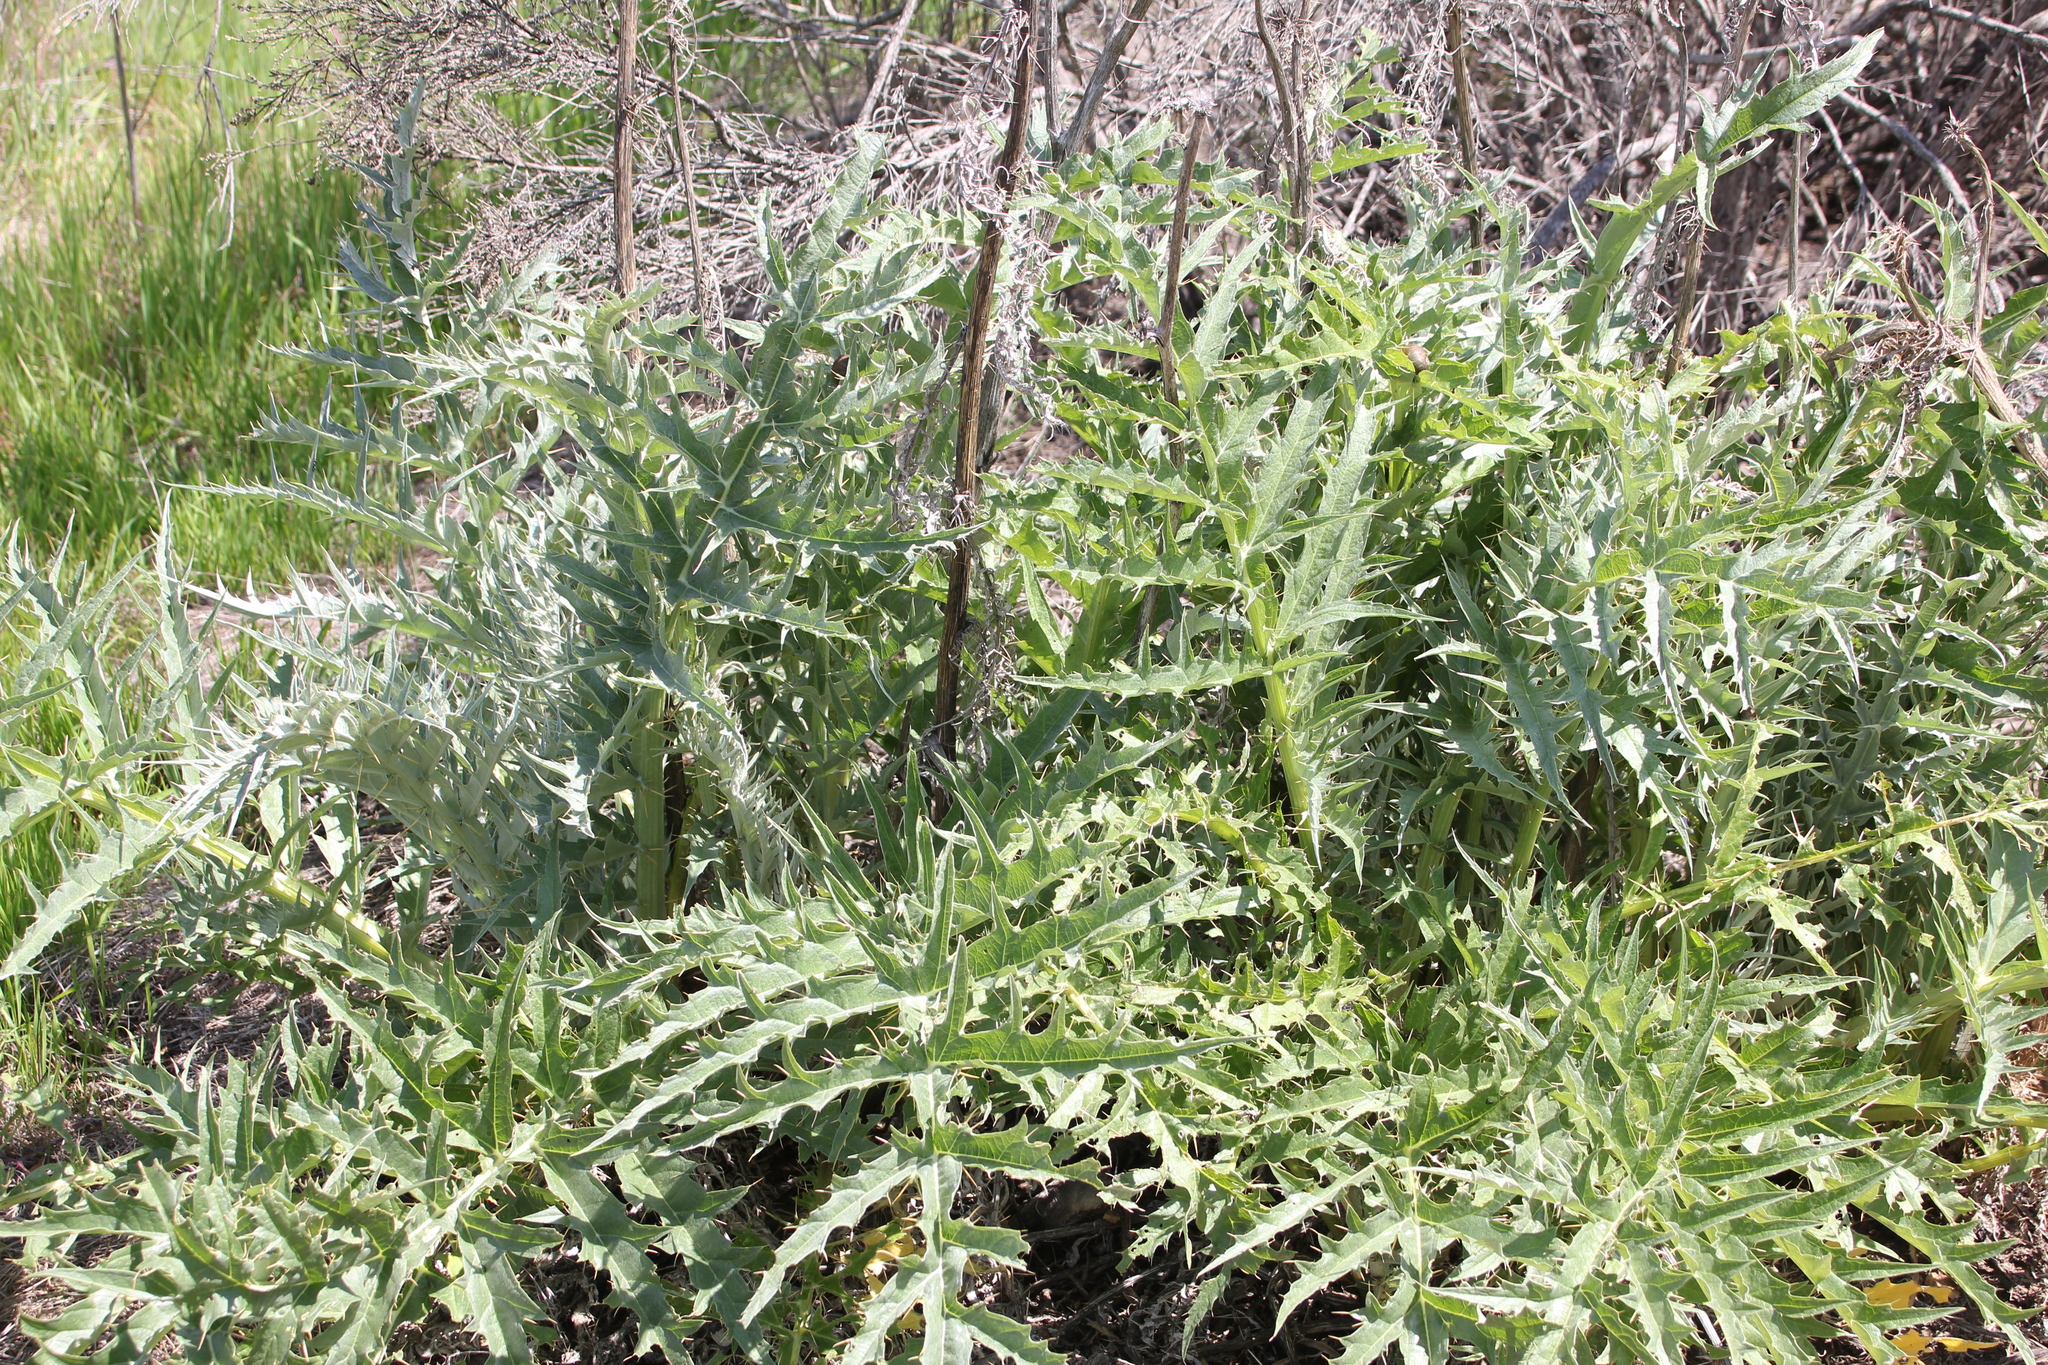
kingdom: Plantae
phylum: Tracheophyta
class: Magnoliopsida
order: Asterales
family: Asteraceae
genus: Cynara
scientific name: Cynara cardunculus
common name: Globe artichoke
